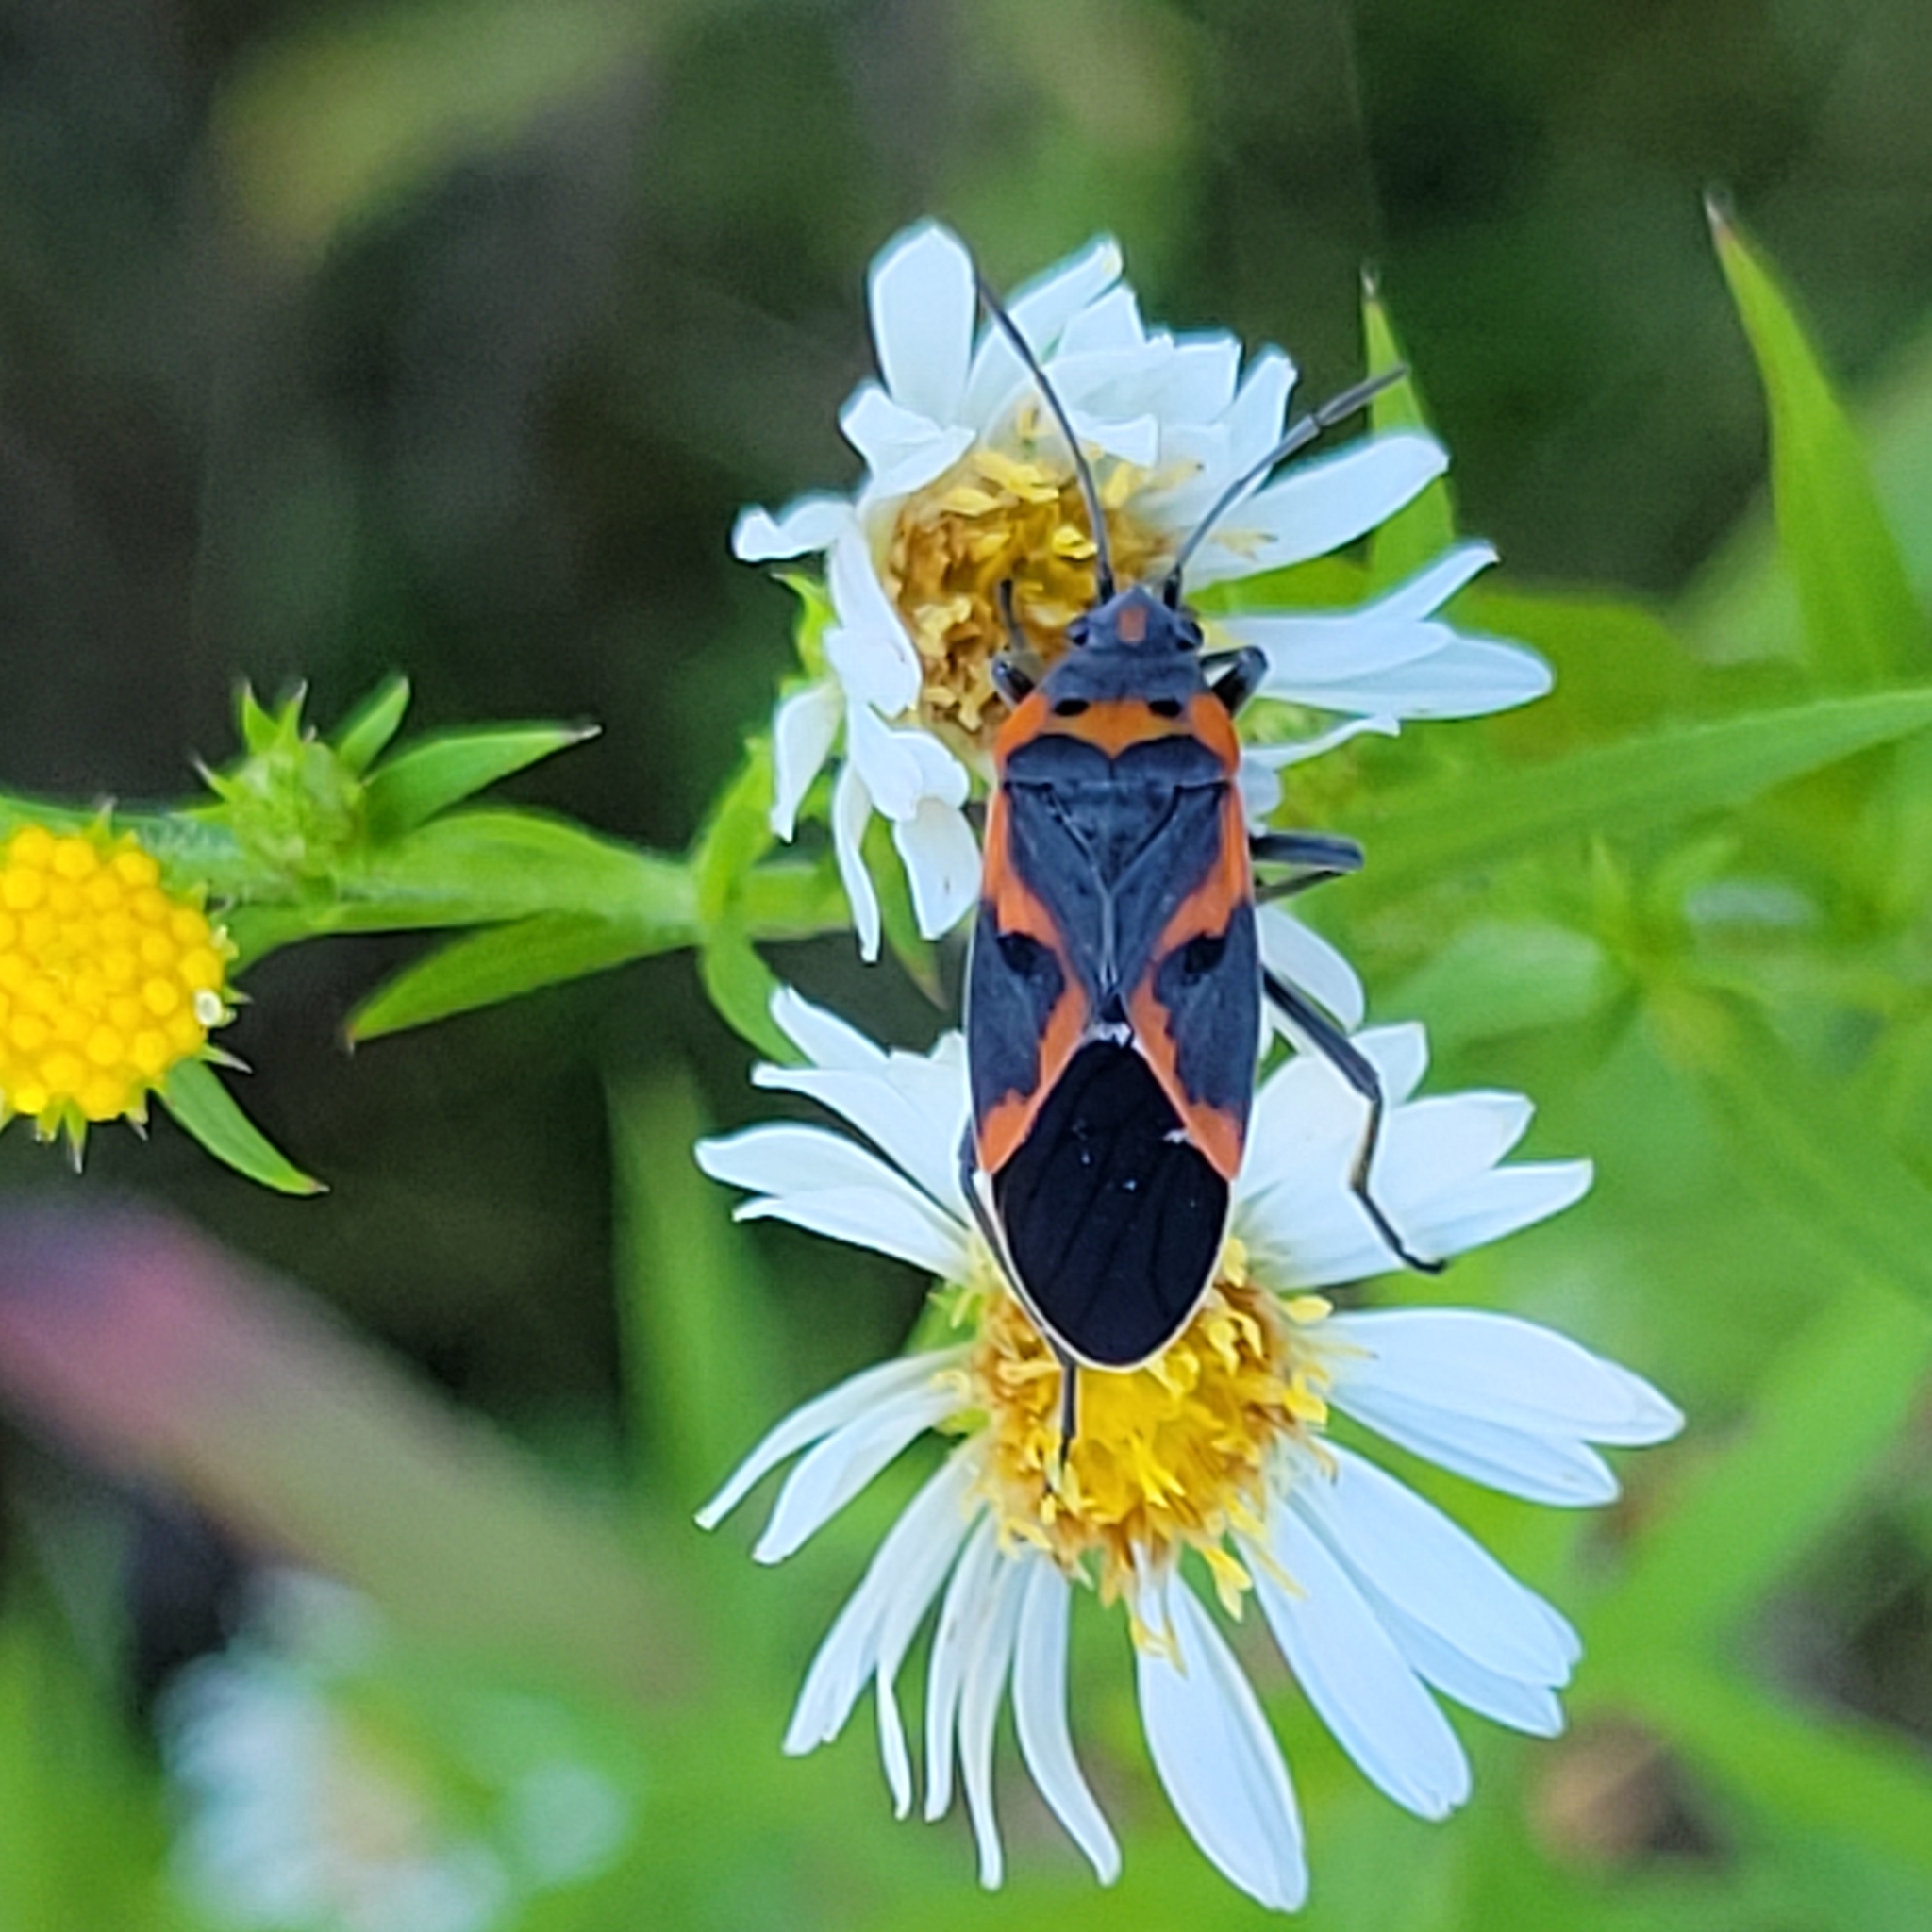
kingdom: Animalia
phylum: Arthropoda
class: Insecta
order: Hemiptera
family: Lygaeidae
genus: Lygaeus
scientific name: Lygaeus kalmii
